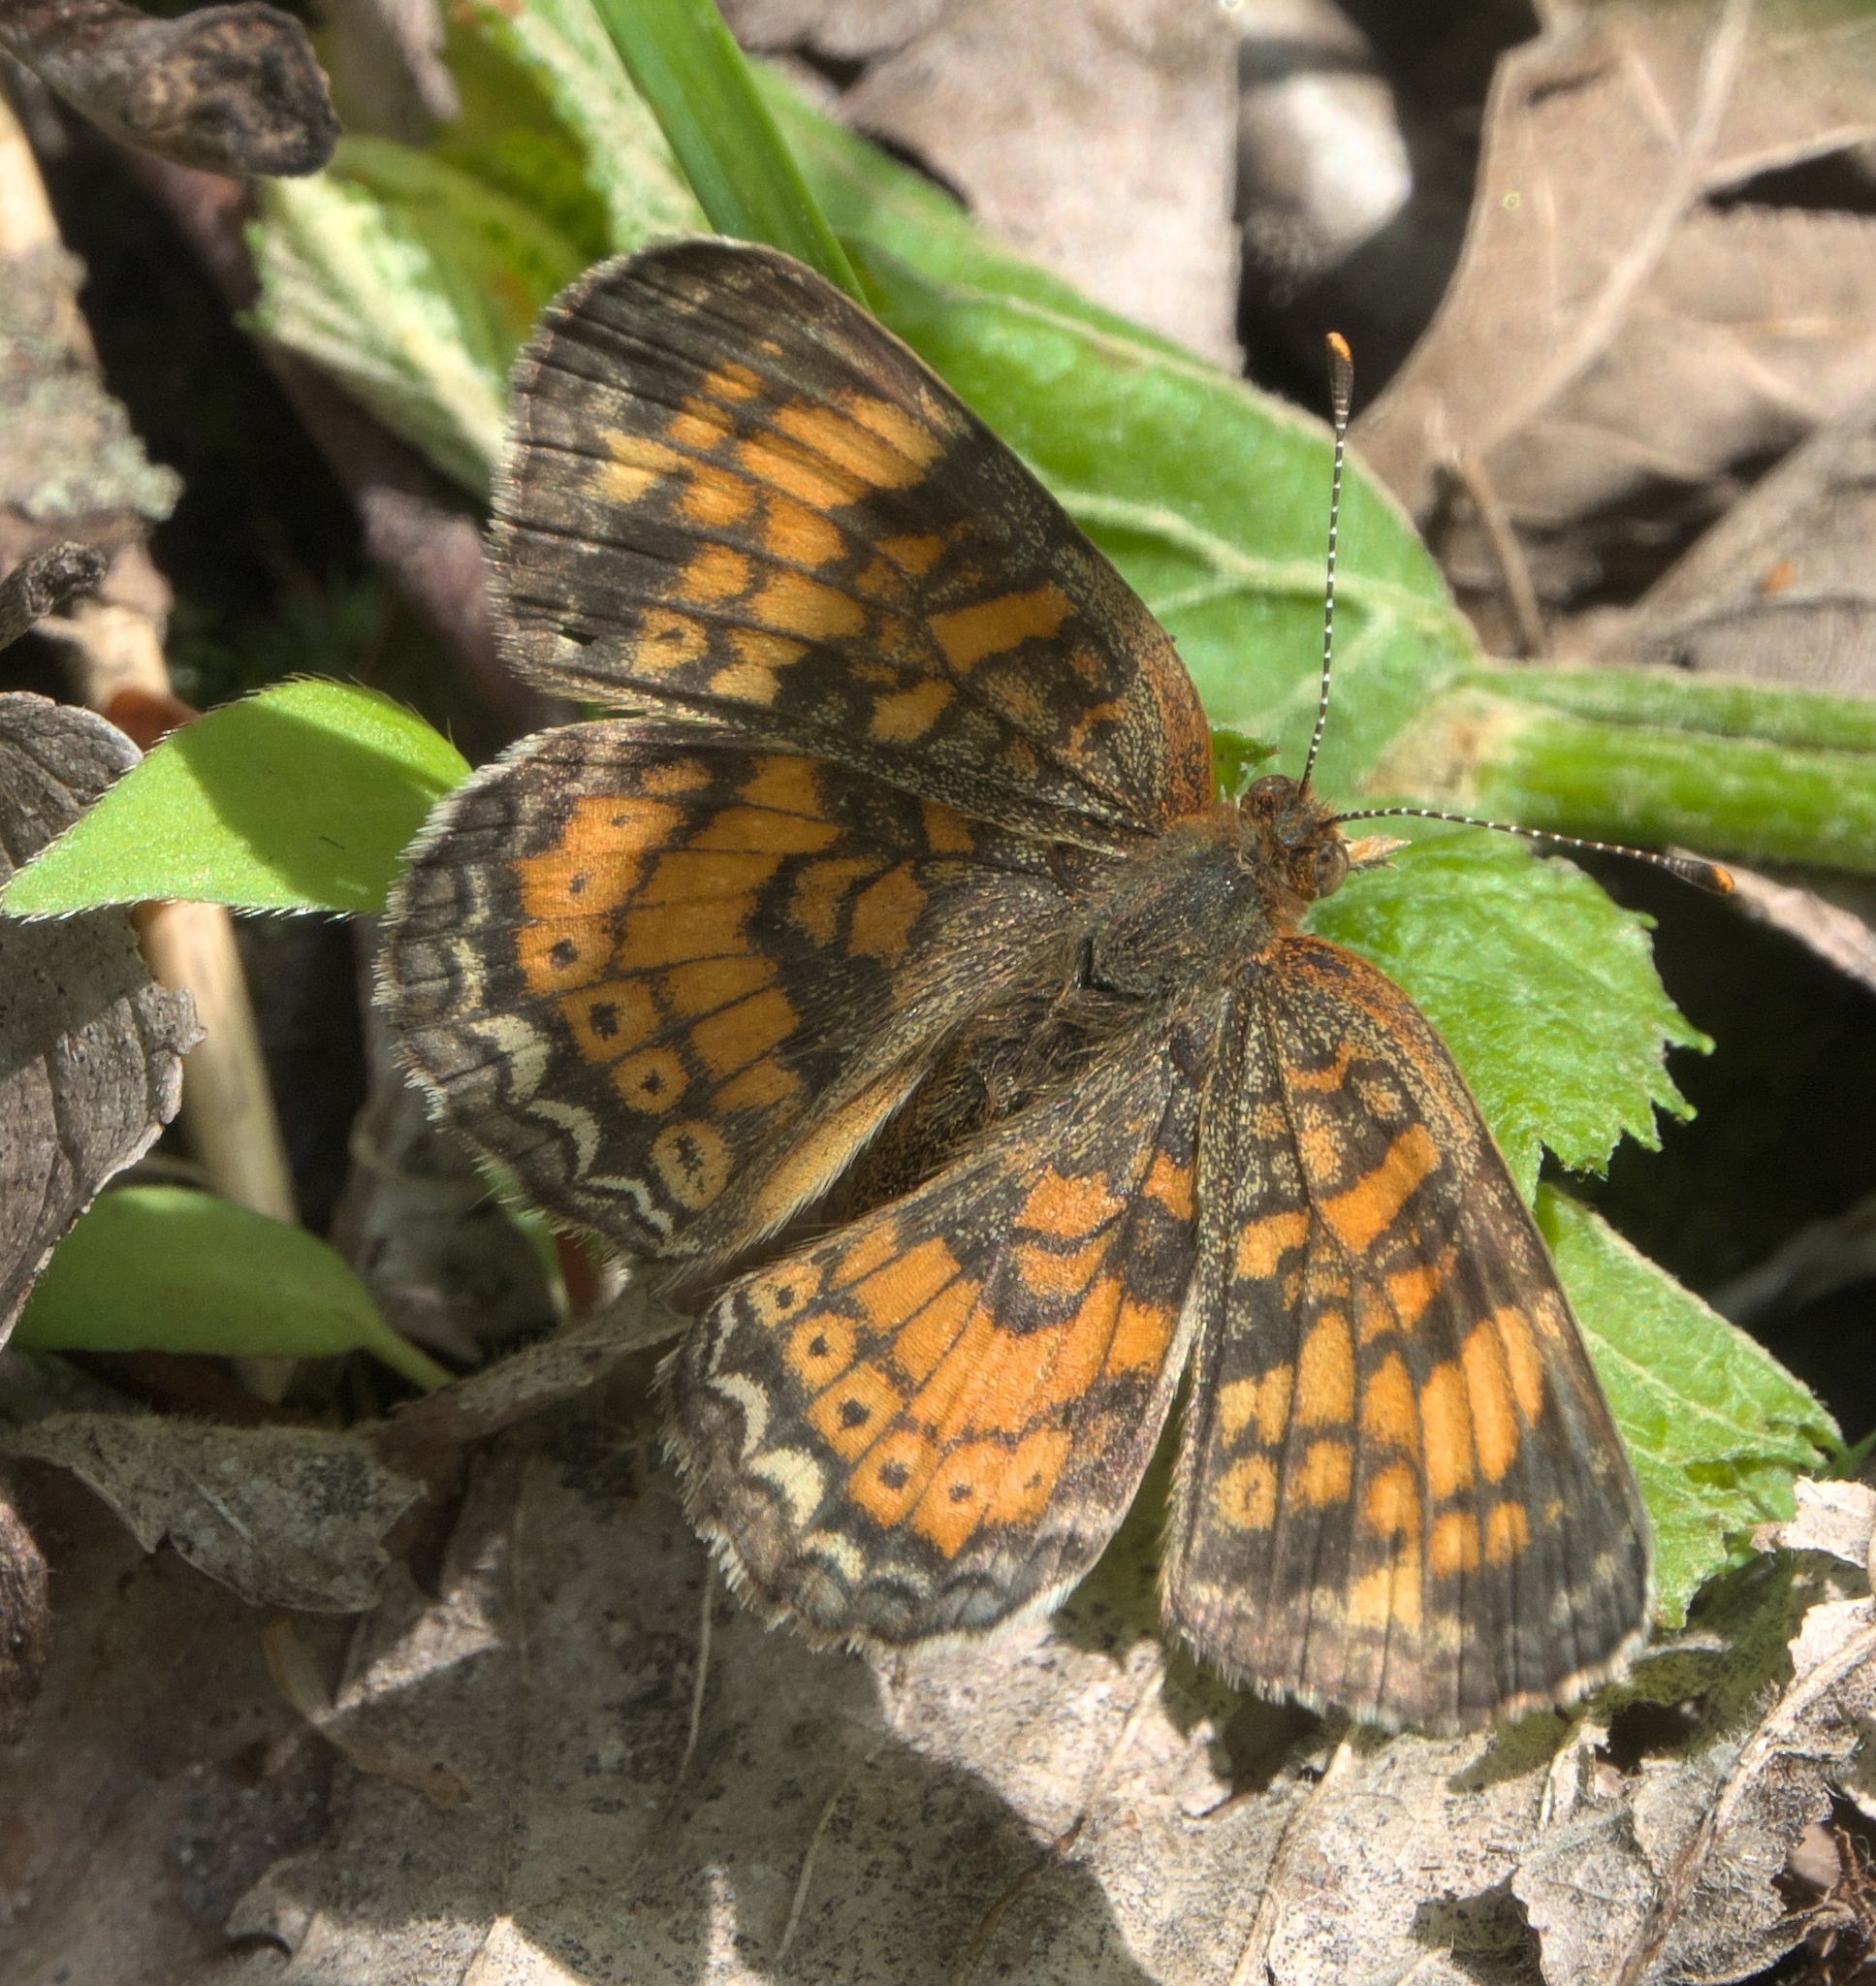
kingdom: Animalia
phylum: Arthropoda
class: Insecta
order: Lepidoptera
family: Nymphalidae
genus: Phyciodes
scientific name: Phyciodes tharos
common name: Pearl crescent
